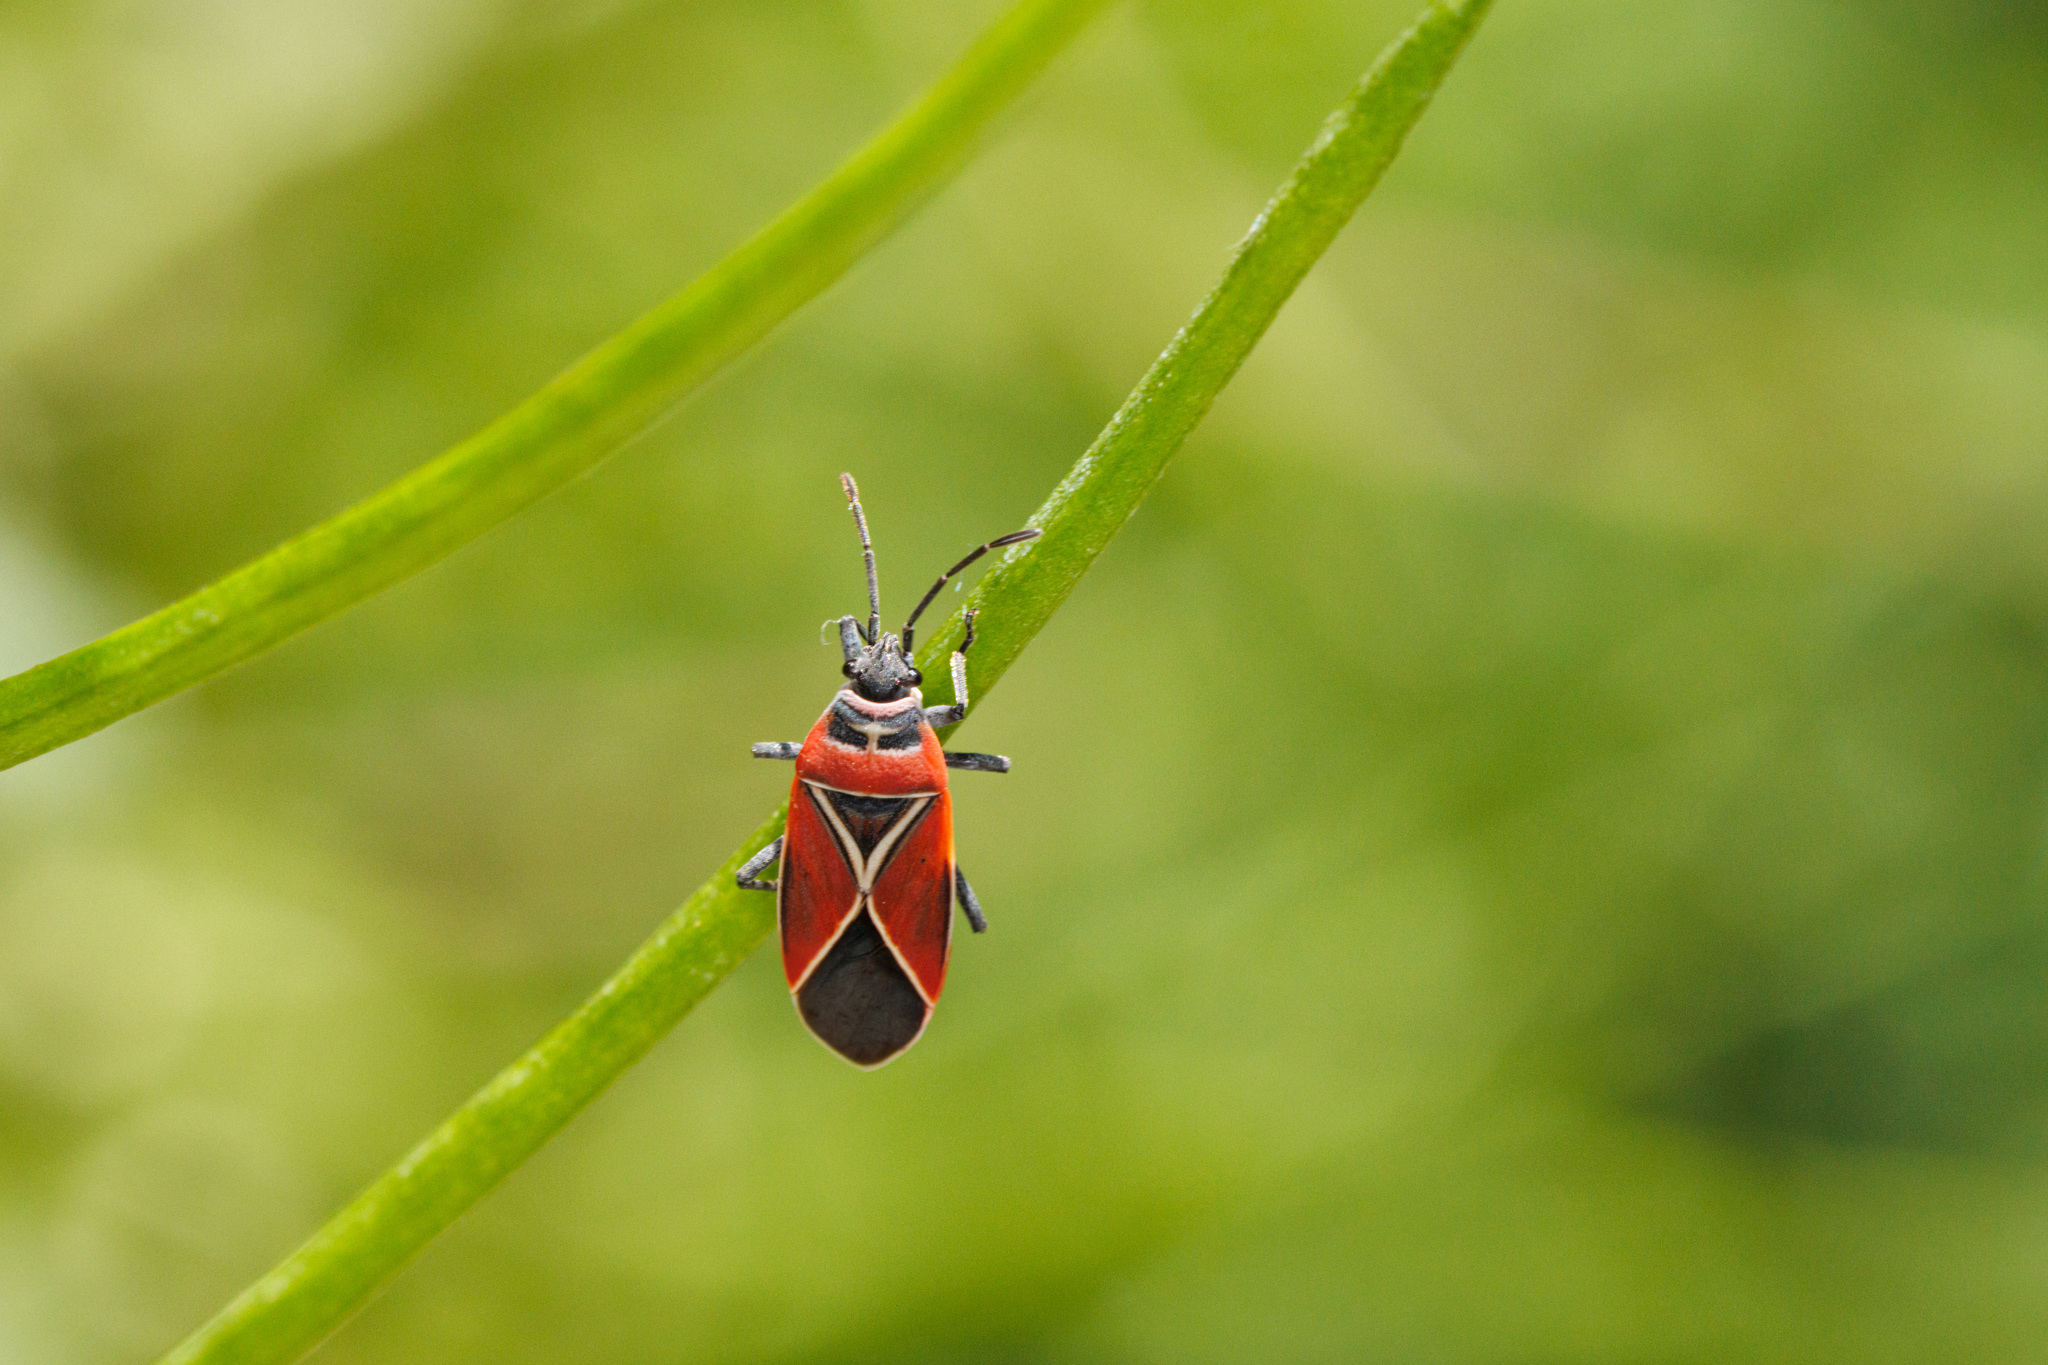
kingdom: Animalia
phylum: Arthropoda
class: Insecta
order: Hemiptera
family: Lygaeidae
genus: Neacoryphus
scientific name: Neacoryphus bicrucis
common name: Lygaeid bug
